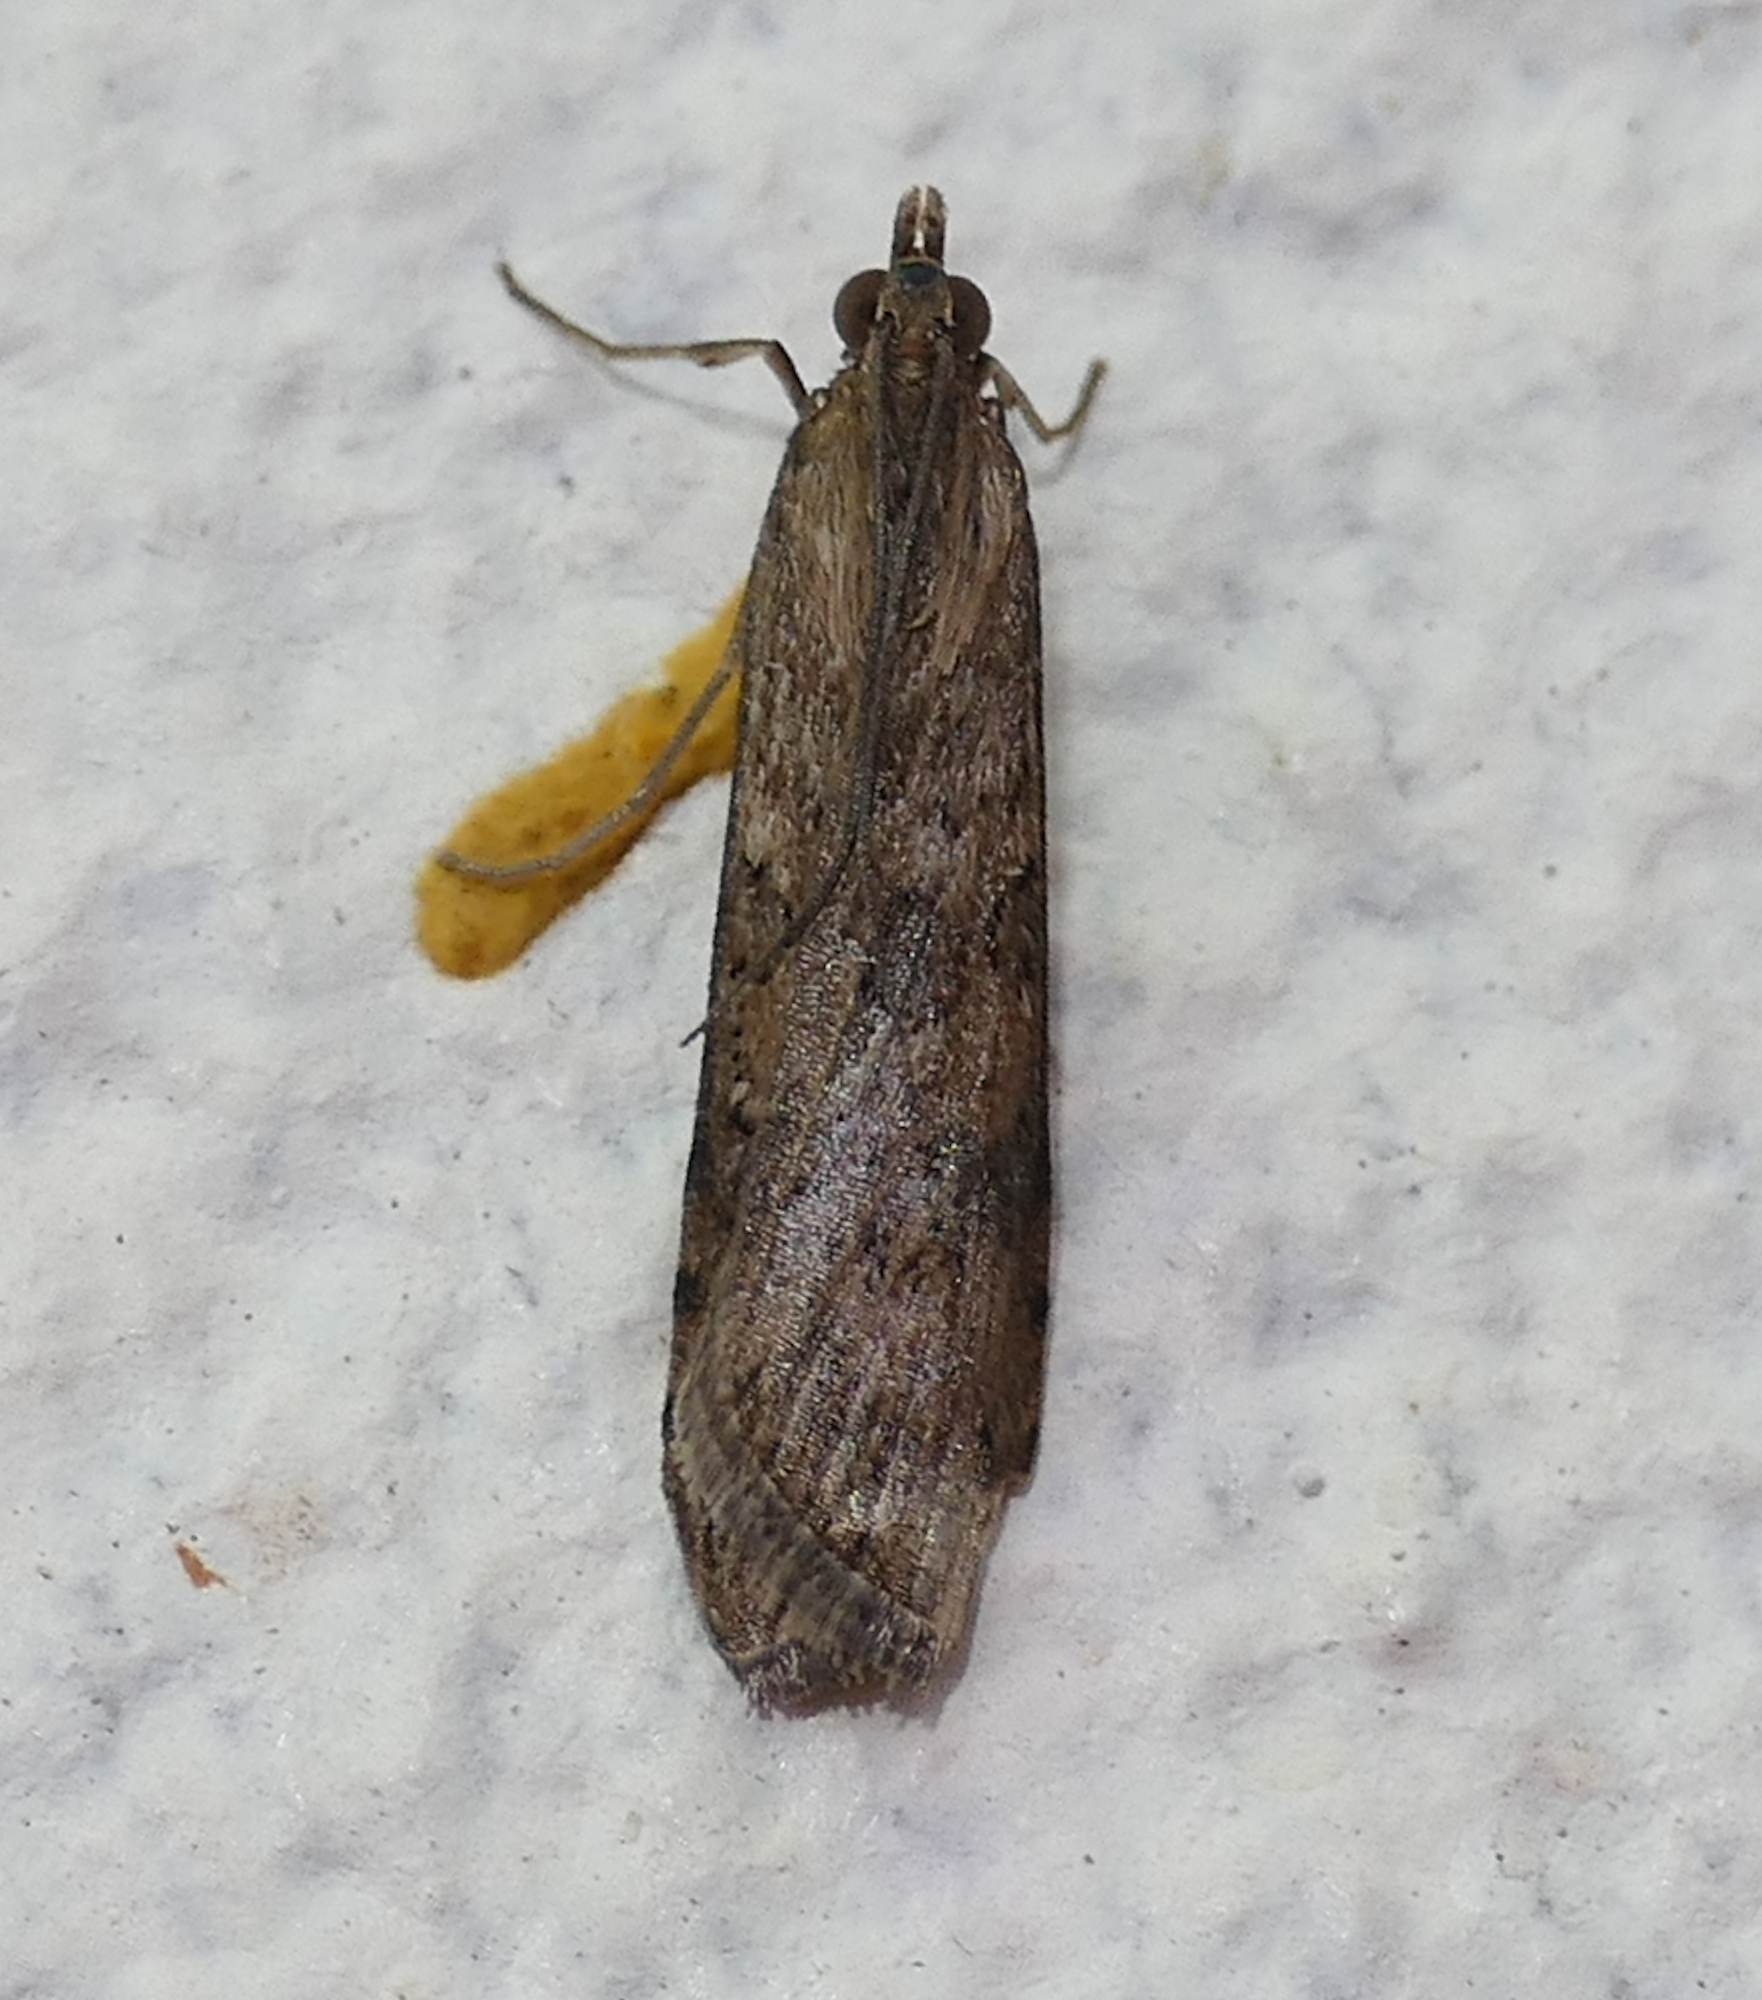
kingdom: Animalia
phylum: Arthropoda
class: Insecta
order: Lepidoptera
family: Crambidae
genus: Nomophila
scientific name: Nomophila nearctica
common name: American rush veneer
